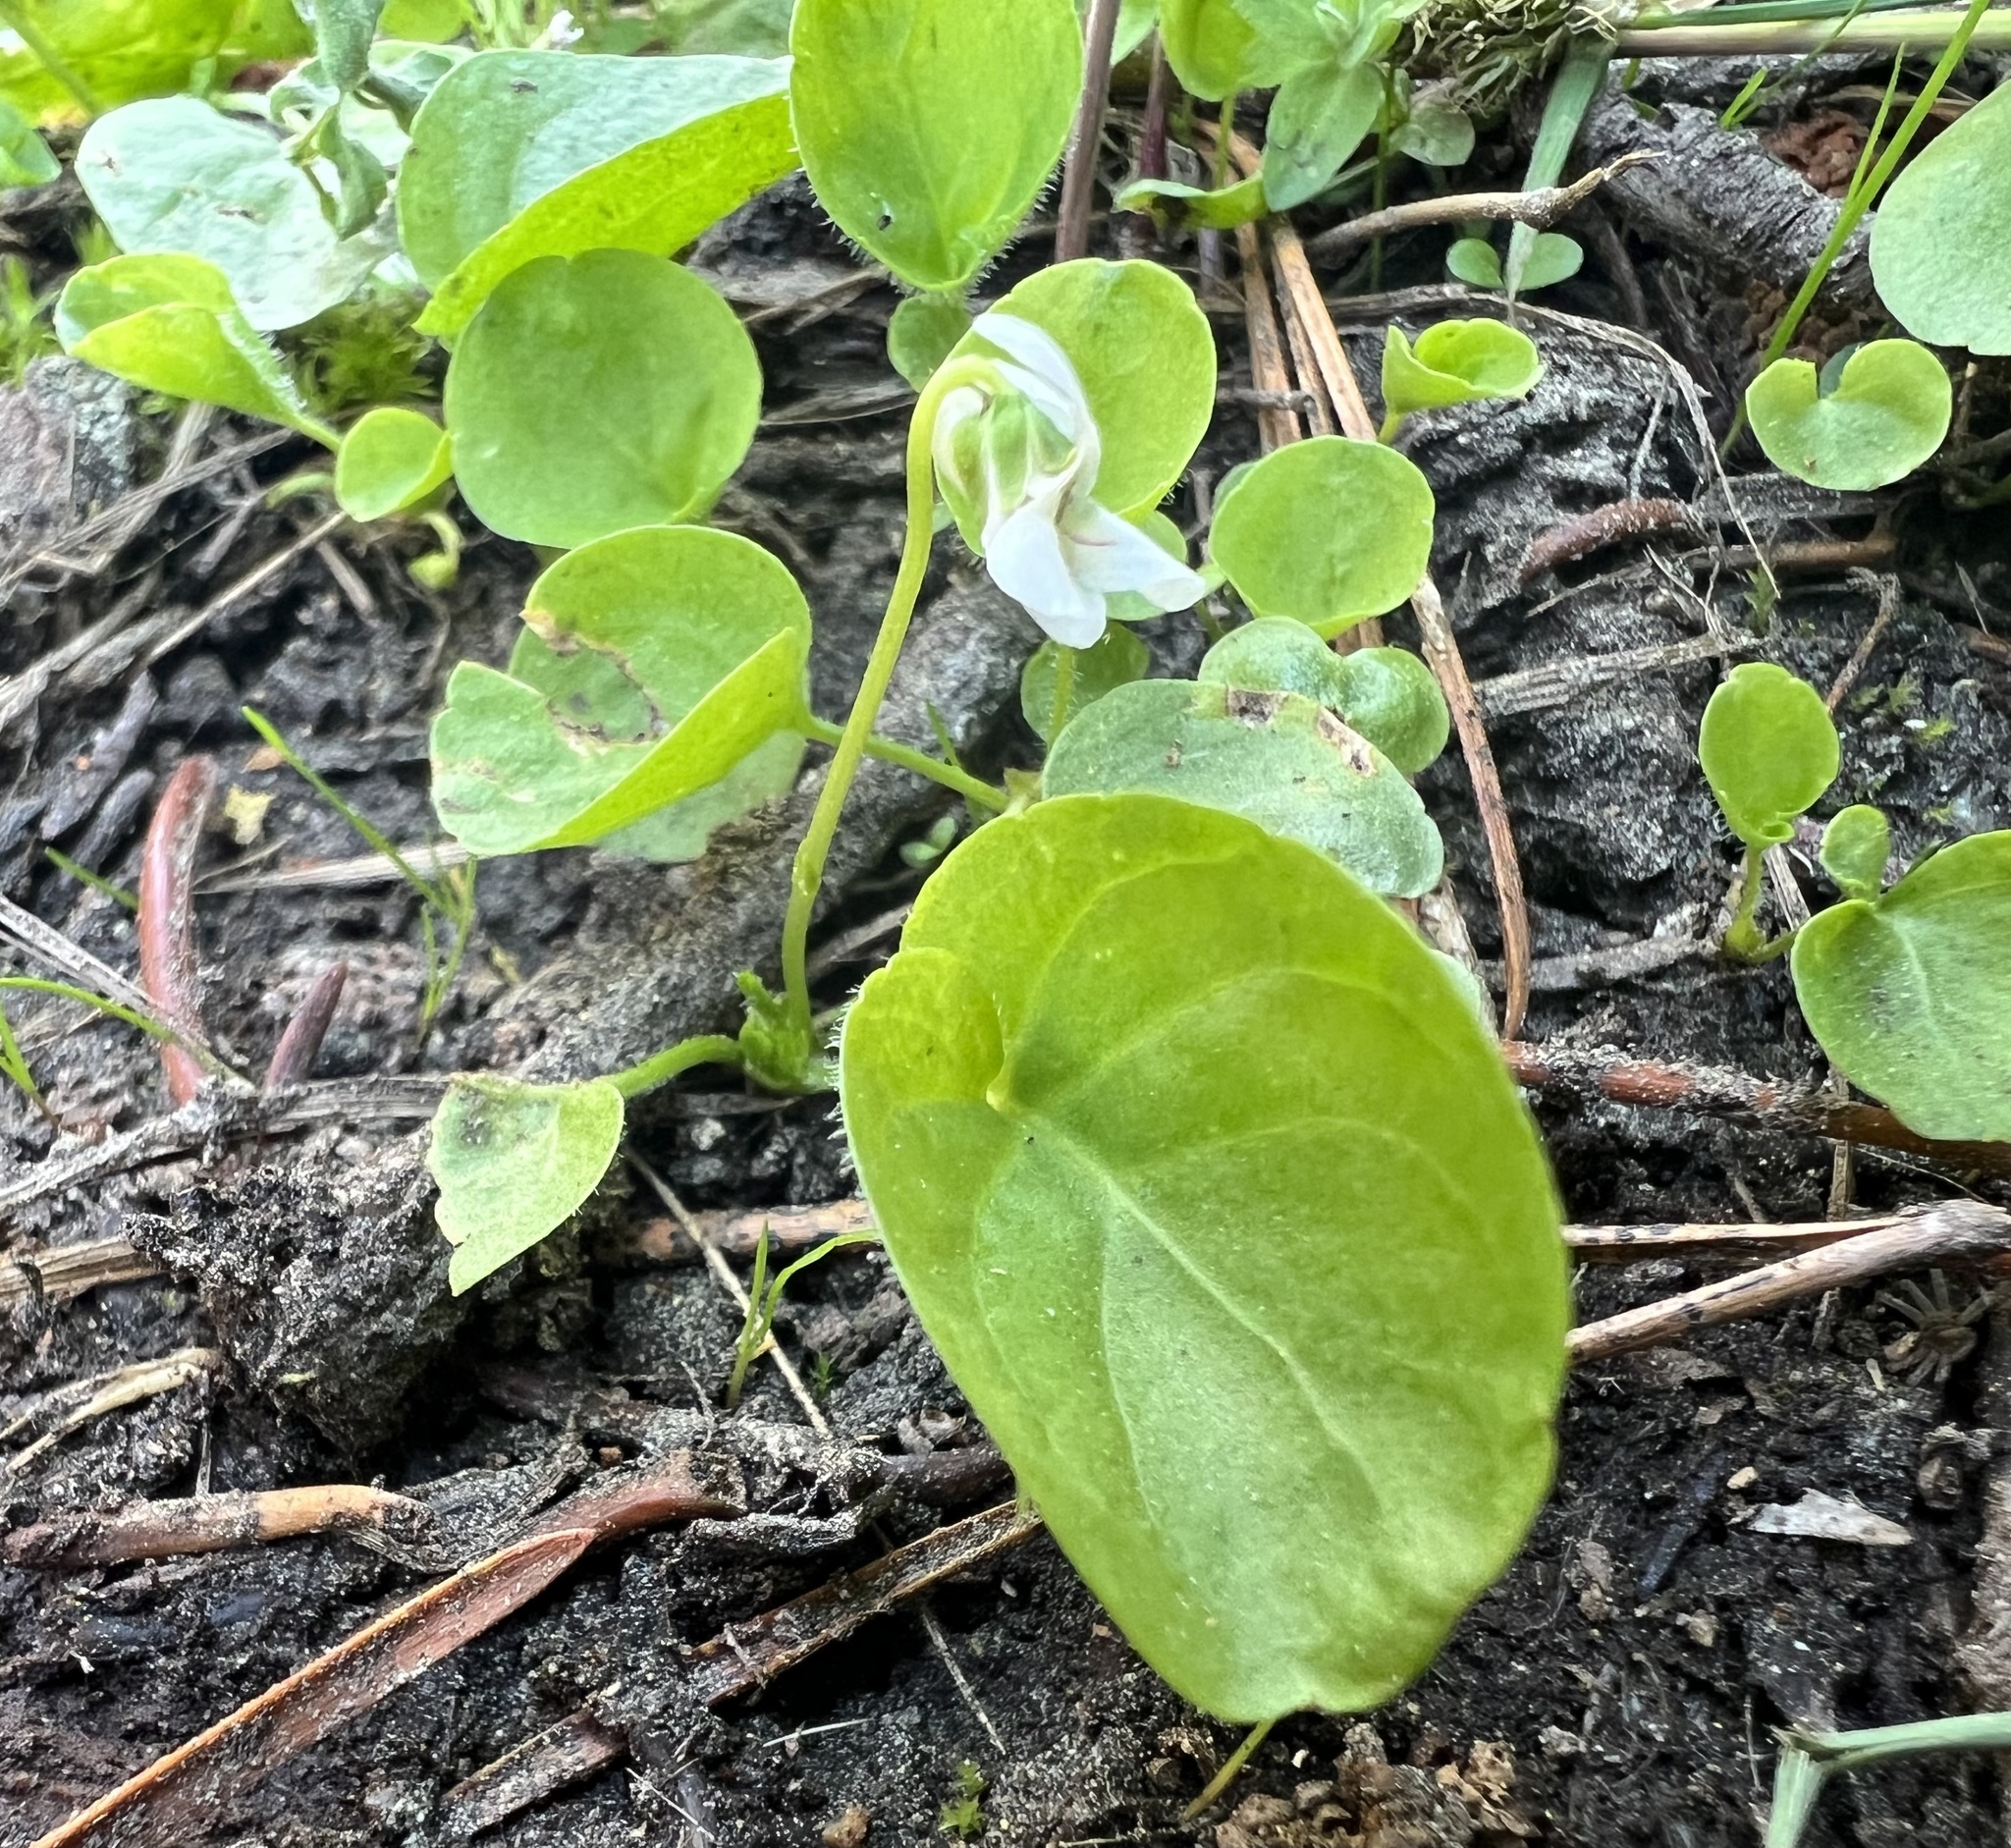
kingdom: Plantae
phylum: Tracheophyta
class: Magnoliopsida
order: Malpighiales
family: Violaceae
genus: Viola
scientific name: Viola macloskeyi
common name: Macloskey's violet
